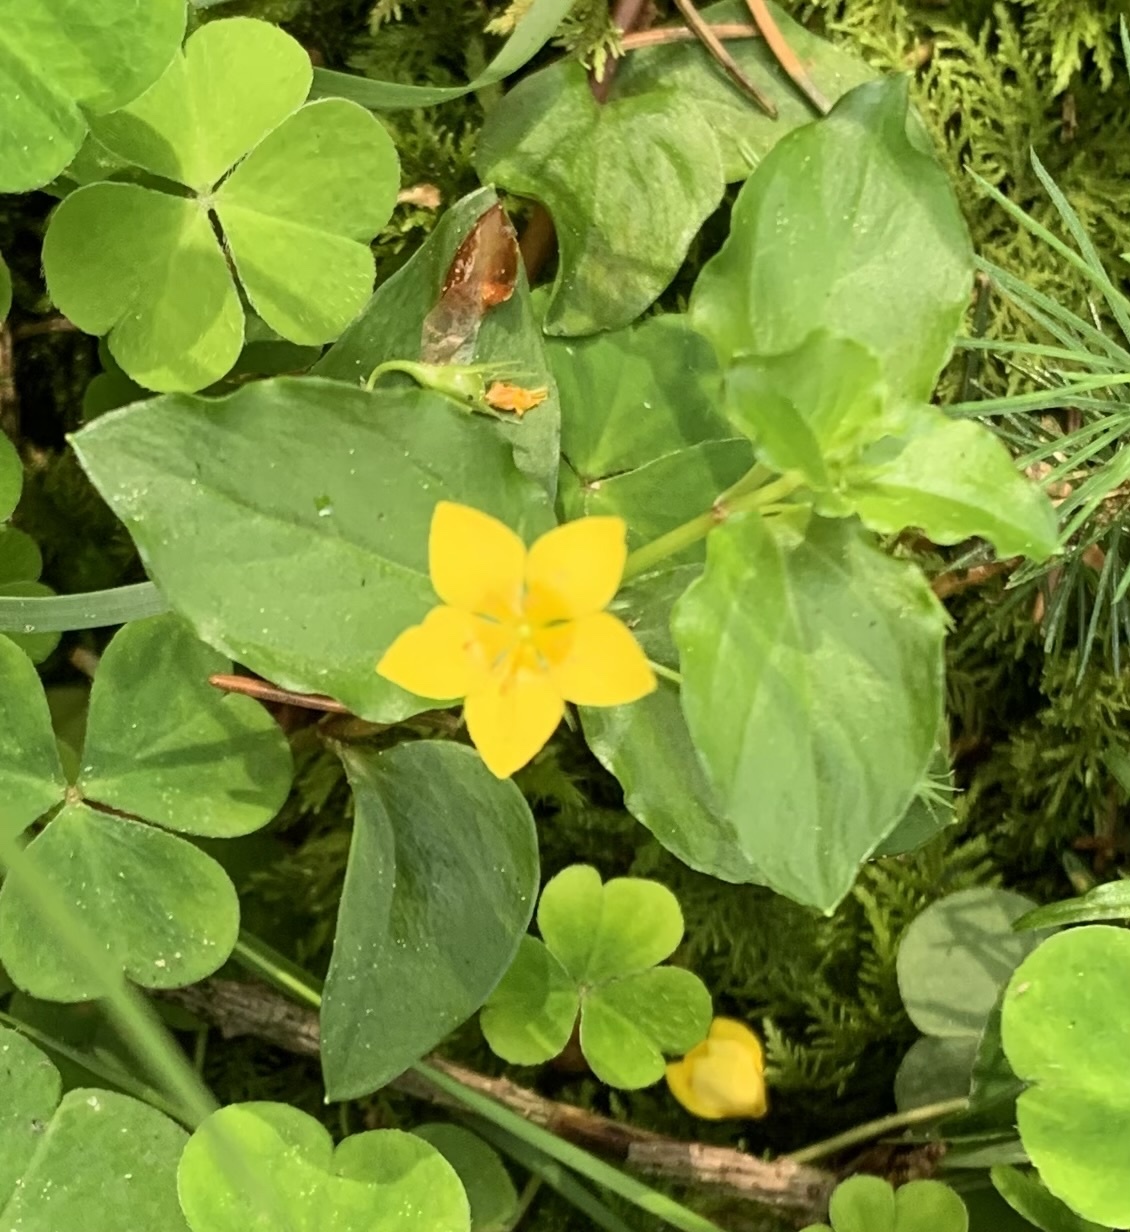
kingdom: Plantae
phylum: Tracheophyta
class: Magnoliopsida
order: Ericales
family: Primulaceae
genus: Lysimachia
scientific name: Lysimachia nemorum
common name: Yellow pimpernel
